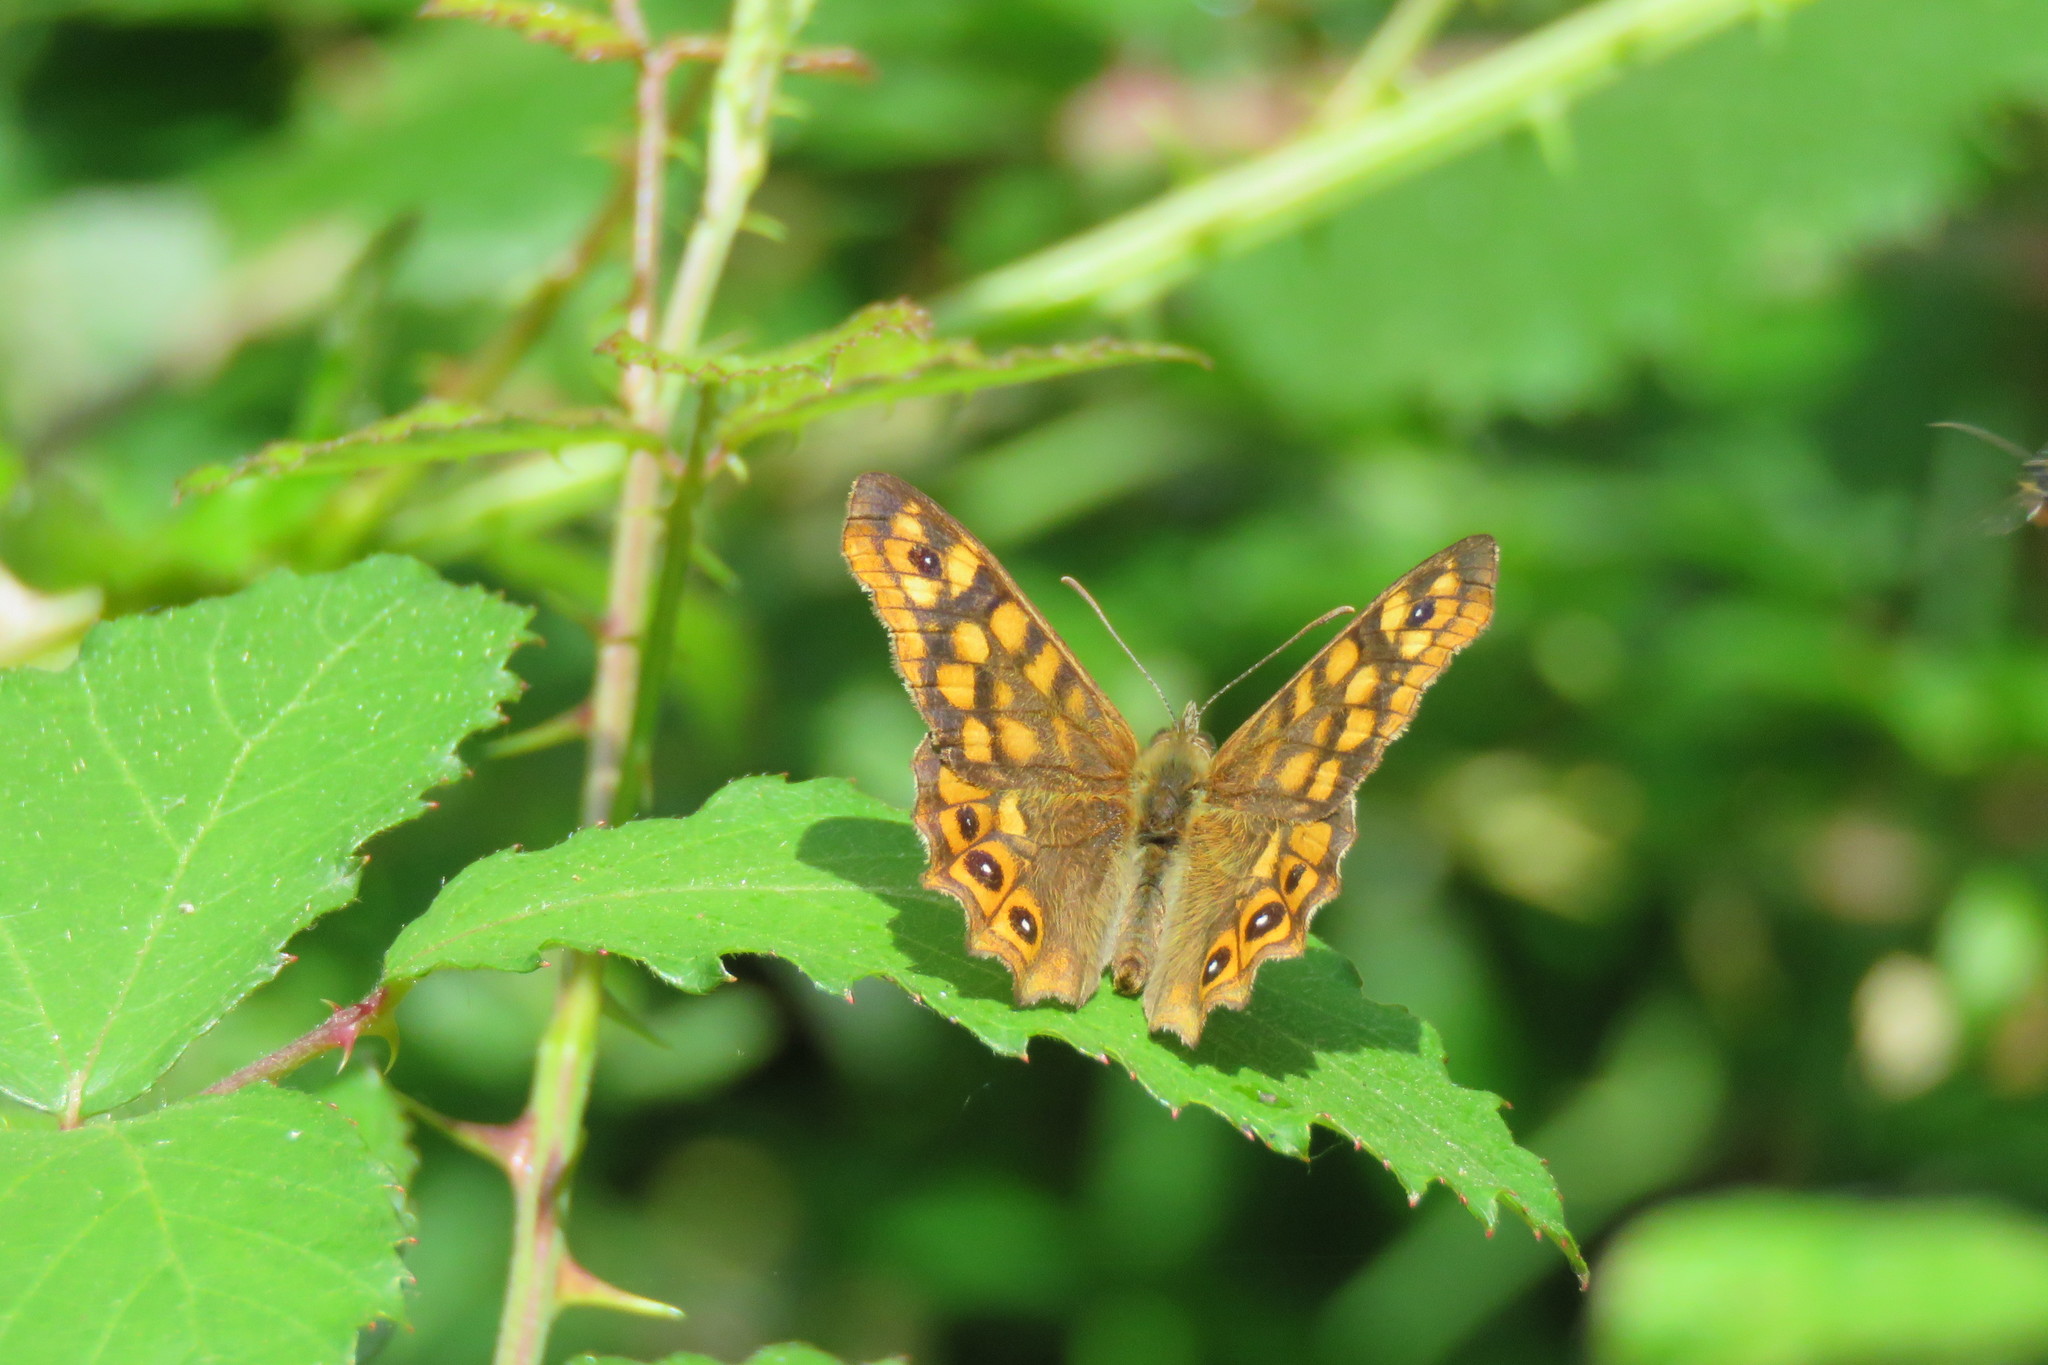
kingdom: Animalia
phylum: Arthropoda
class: Insecta
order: Lepidoptera
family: Nymphalidae
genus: Pararge
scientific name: Pararge aegeria
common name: Speckled wood
